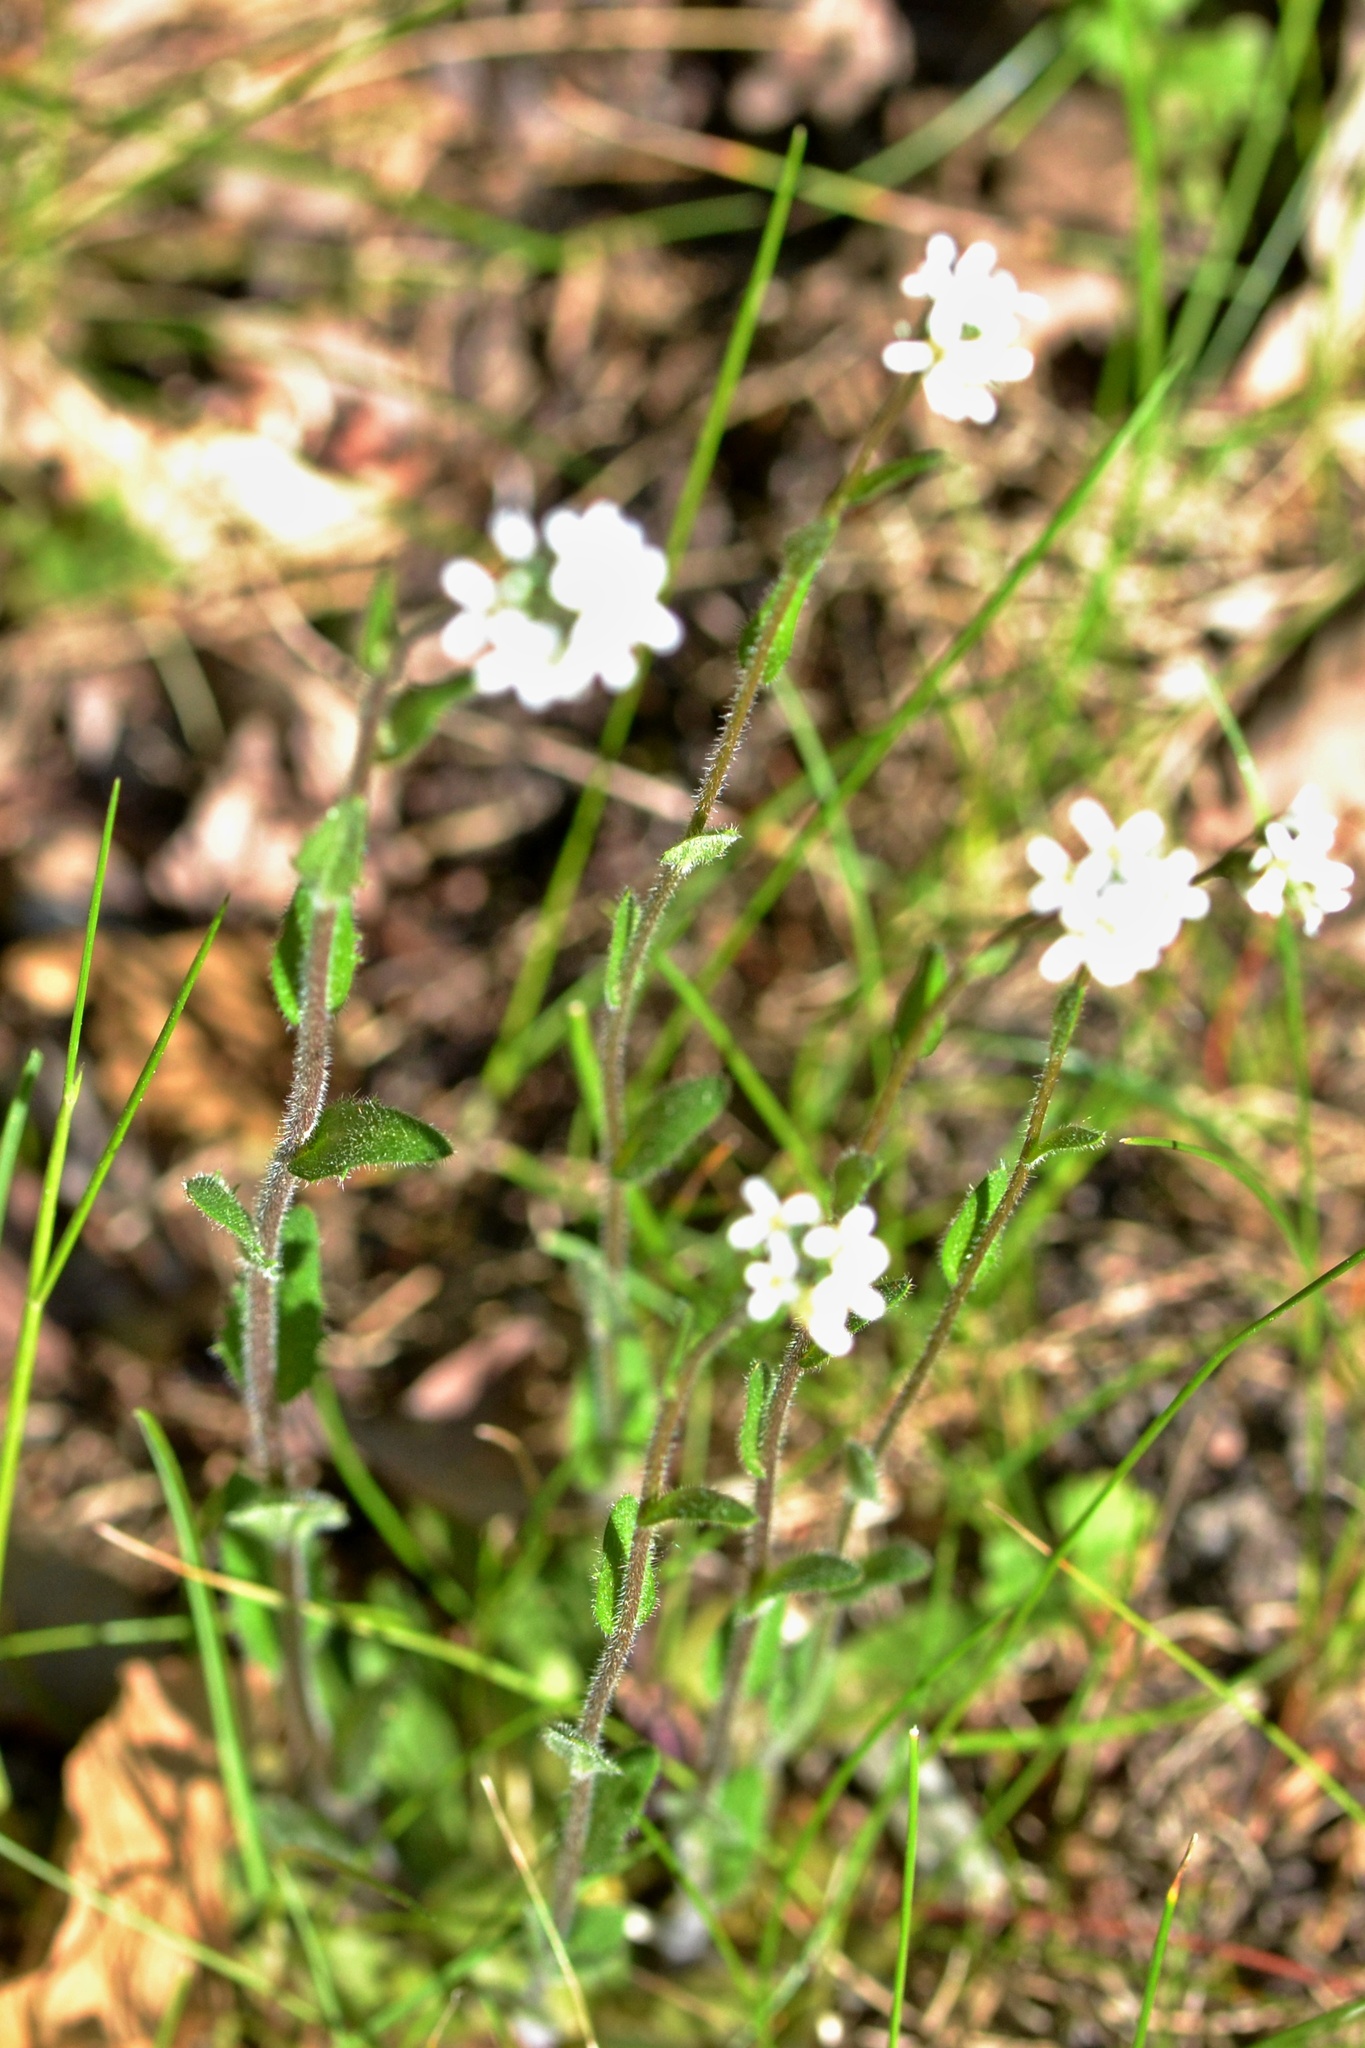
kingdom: Plantae
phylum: Tracheophyta
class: Magnoliopsida
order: Brassicales
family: Brassicaceae
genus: Arabis
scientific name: Arabis hirsuta
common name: Hairy rock-cress
